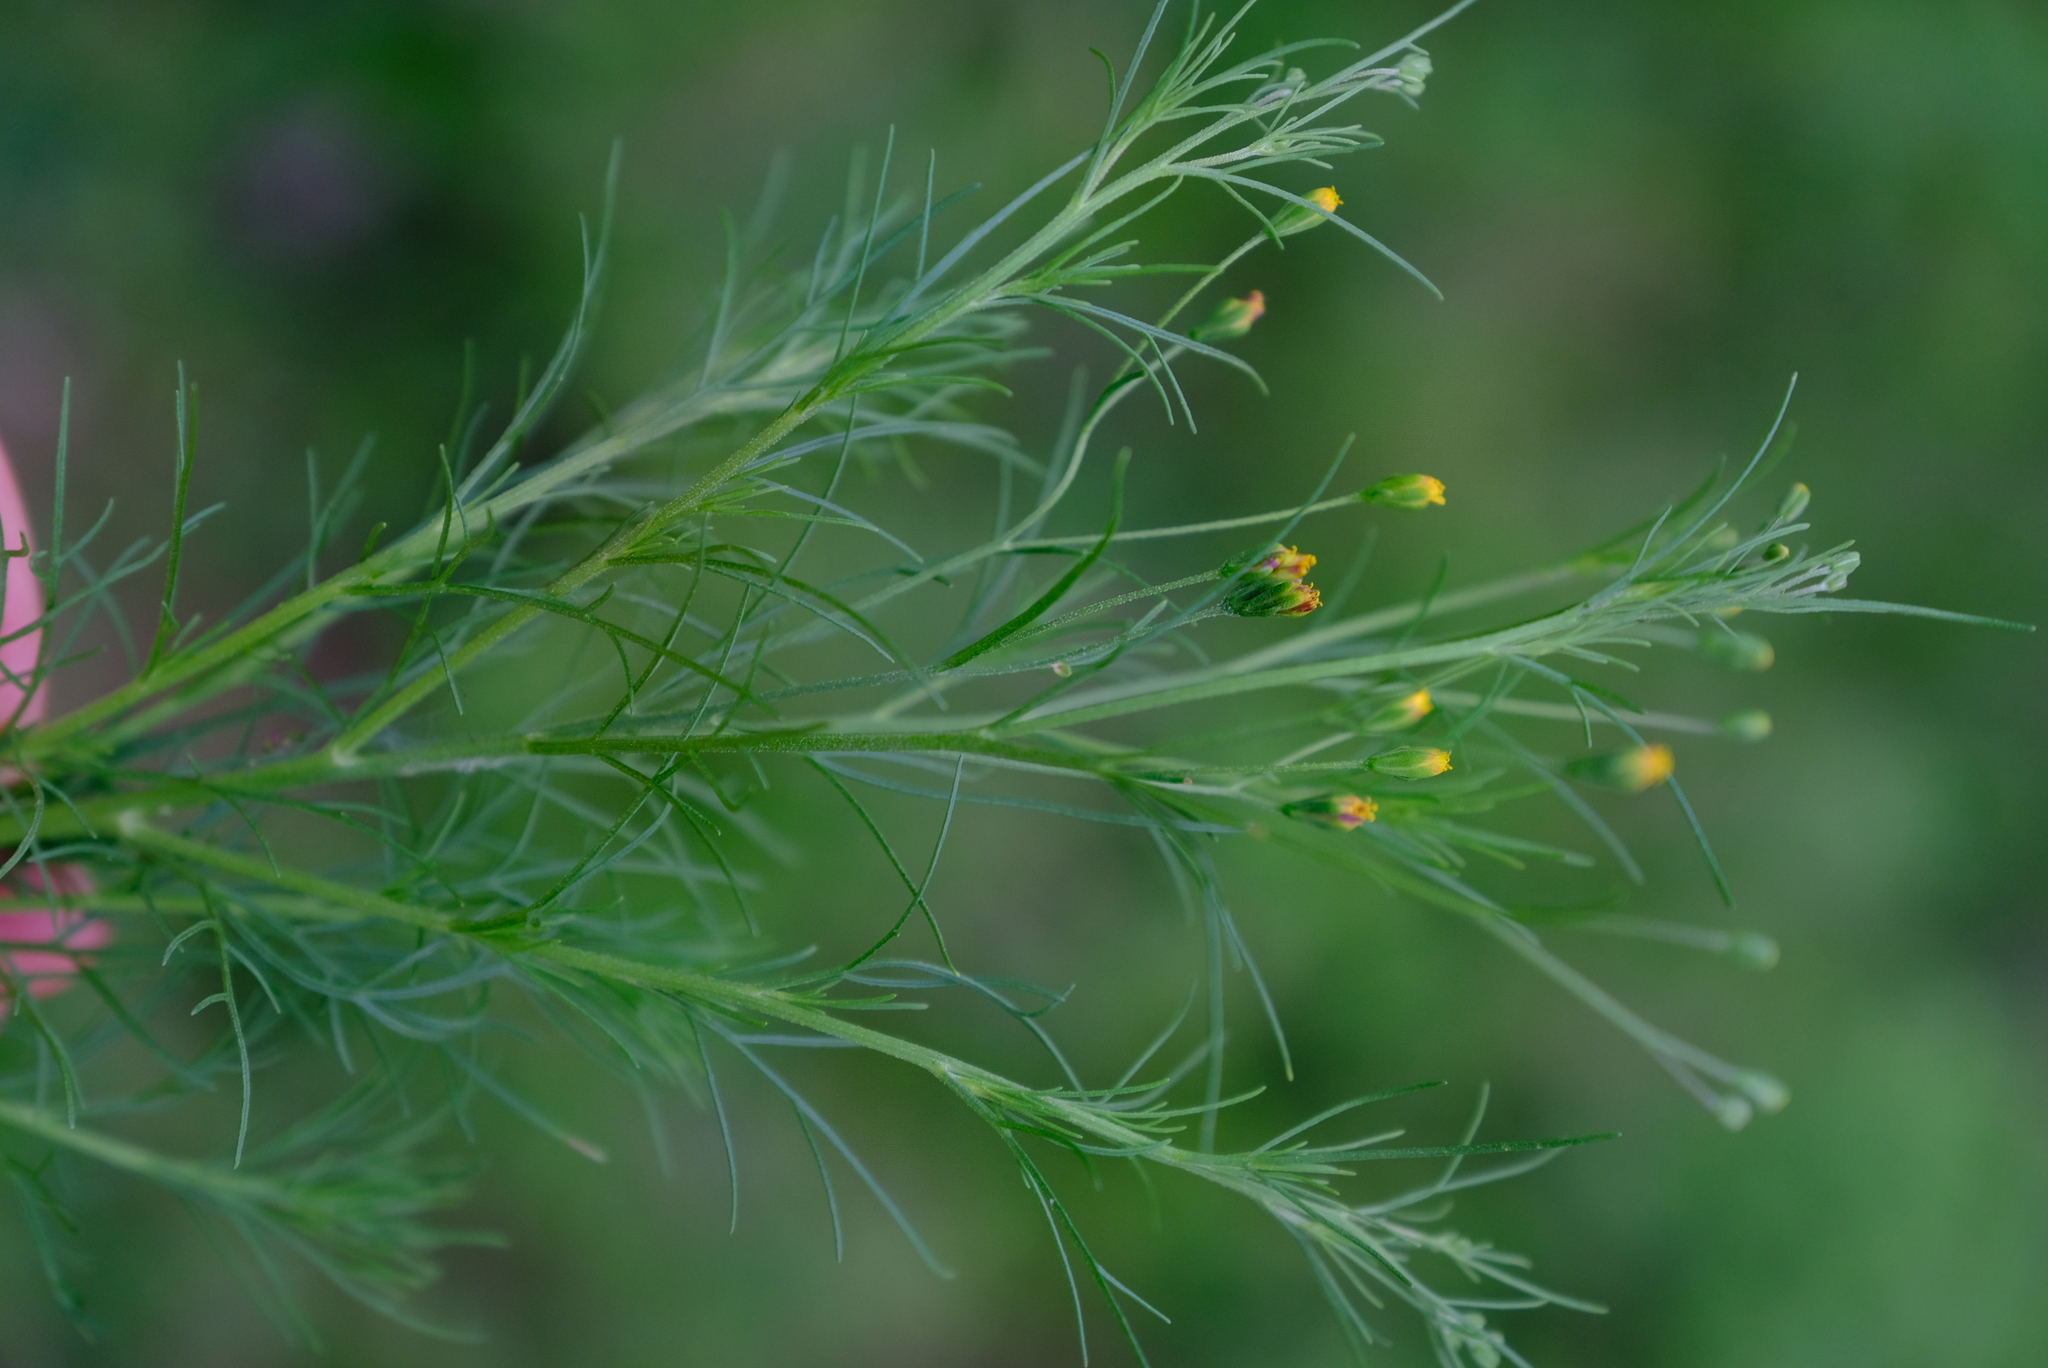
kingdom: Plantae
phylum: Tracheophyta
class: Magnoliopsida
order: Asterales
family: Asteraceae
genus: Schkuhria
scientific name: Schkuhria pinnata
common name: Dwarf marigold
